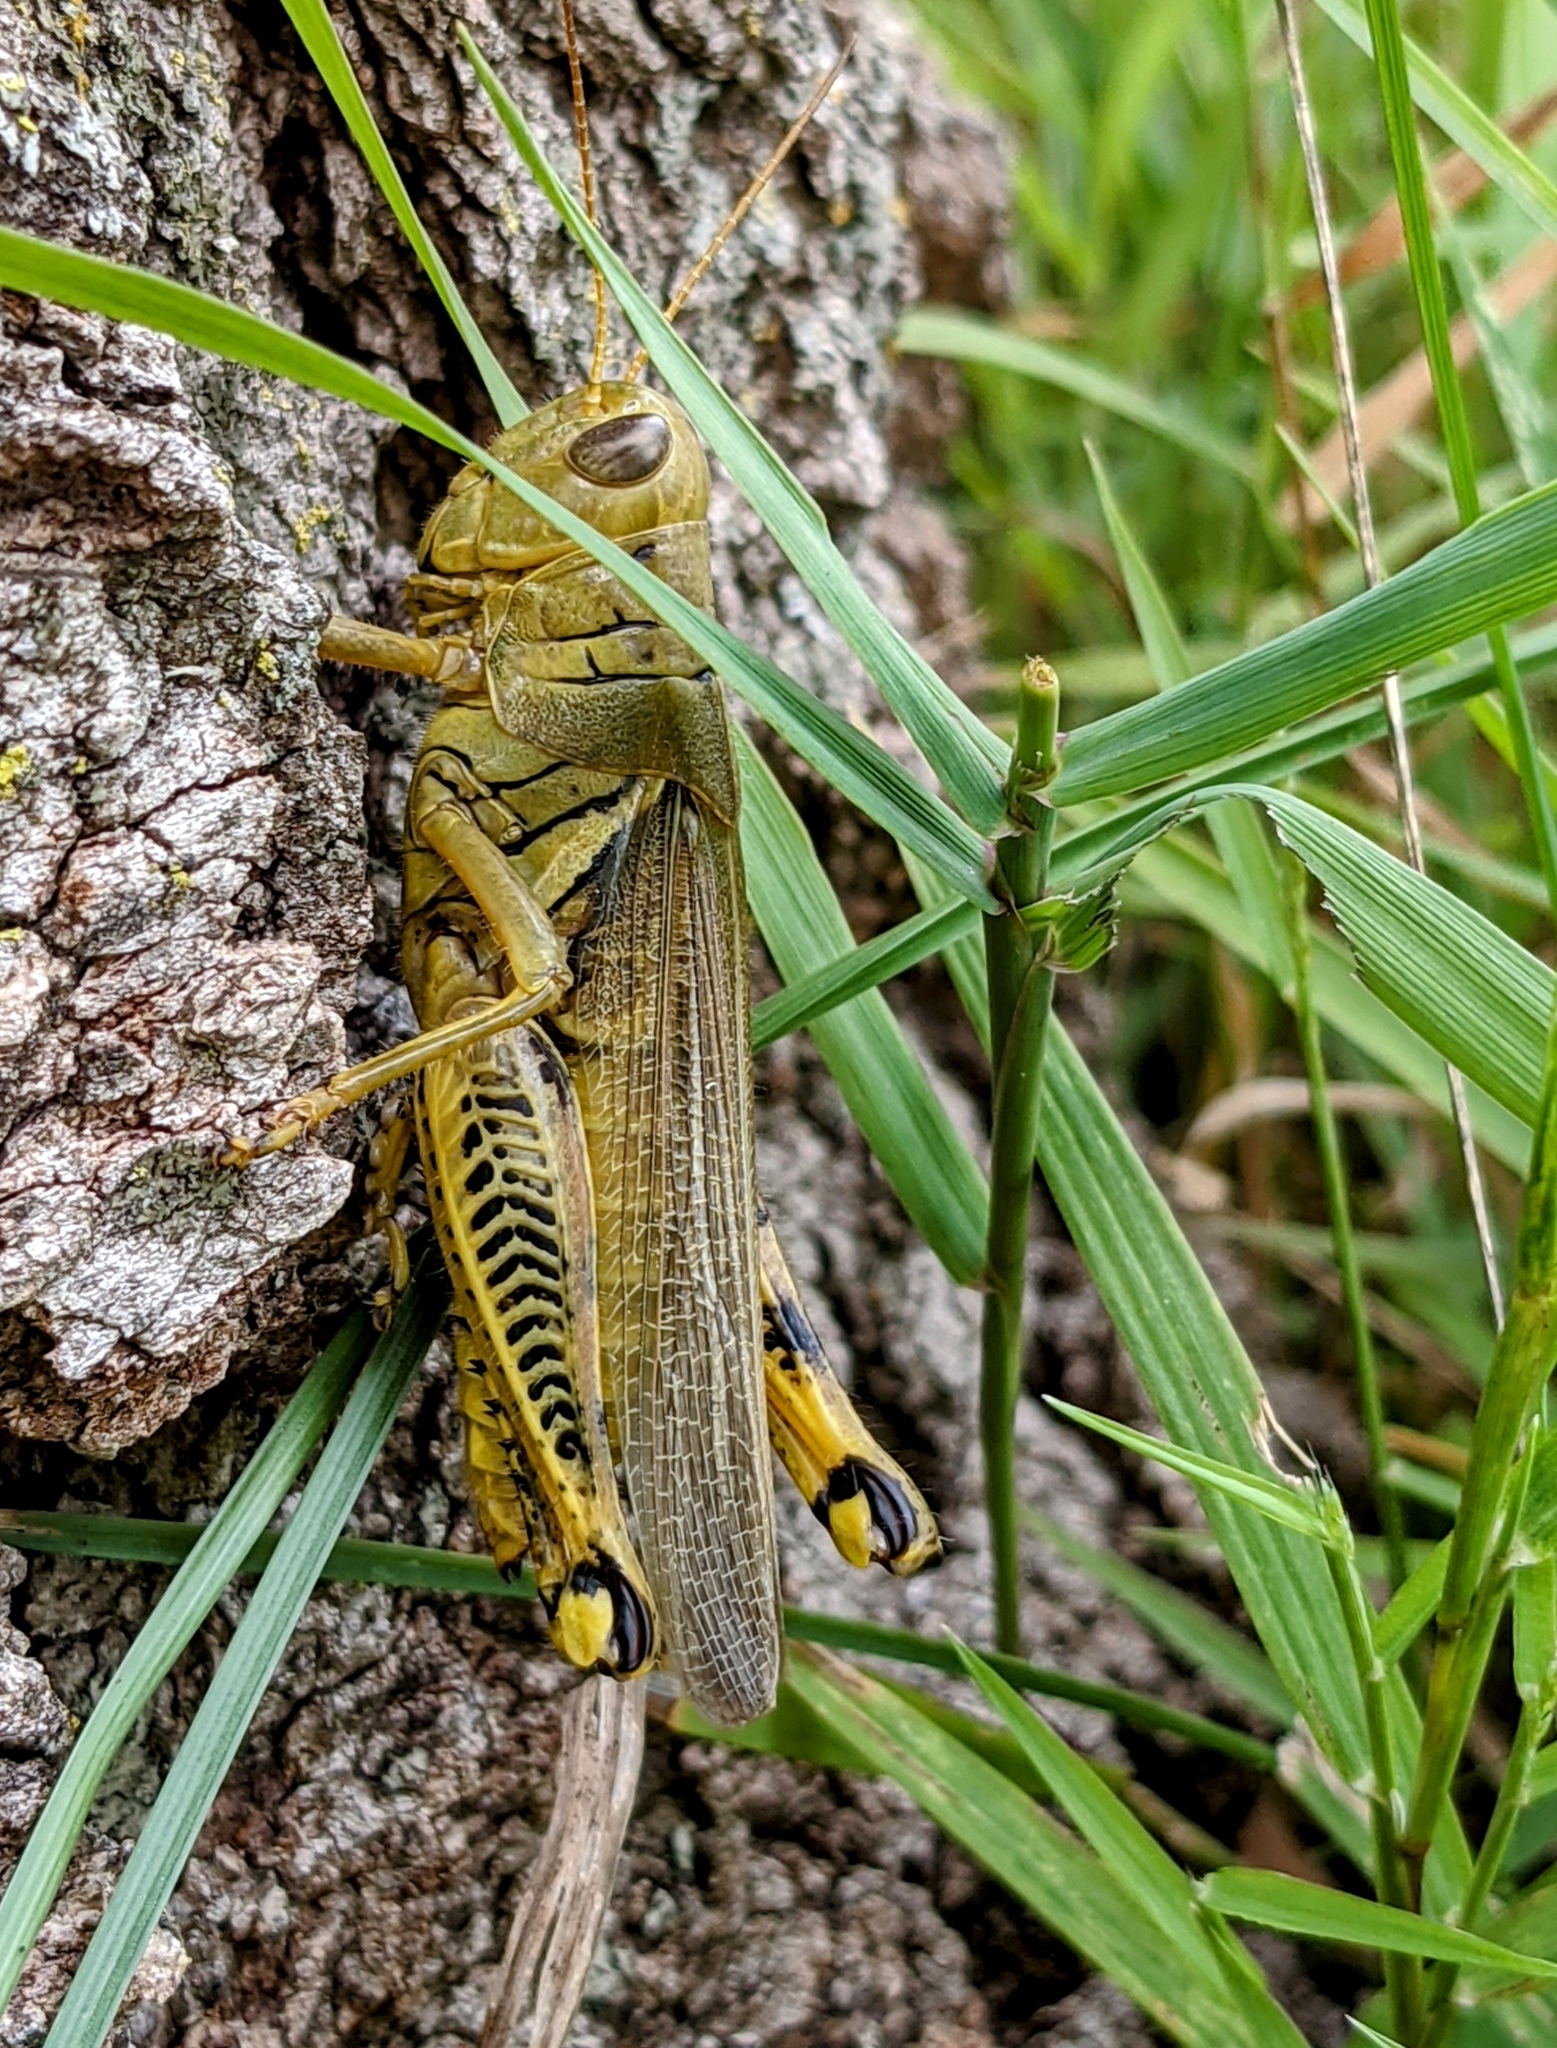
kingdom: Animalia
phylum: Arthropoda
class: Insecta
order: Orthoptera
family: Acrididae
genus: Melanoplus
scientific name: Melanoplus differentialis
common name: Differential grasshopper
